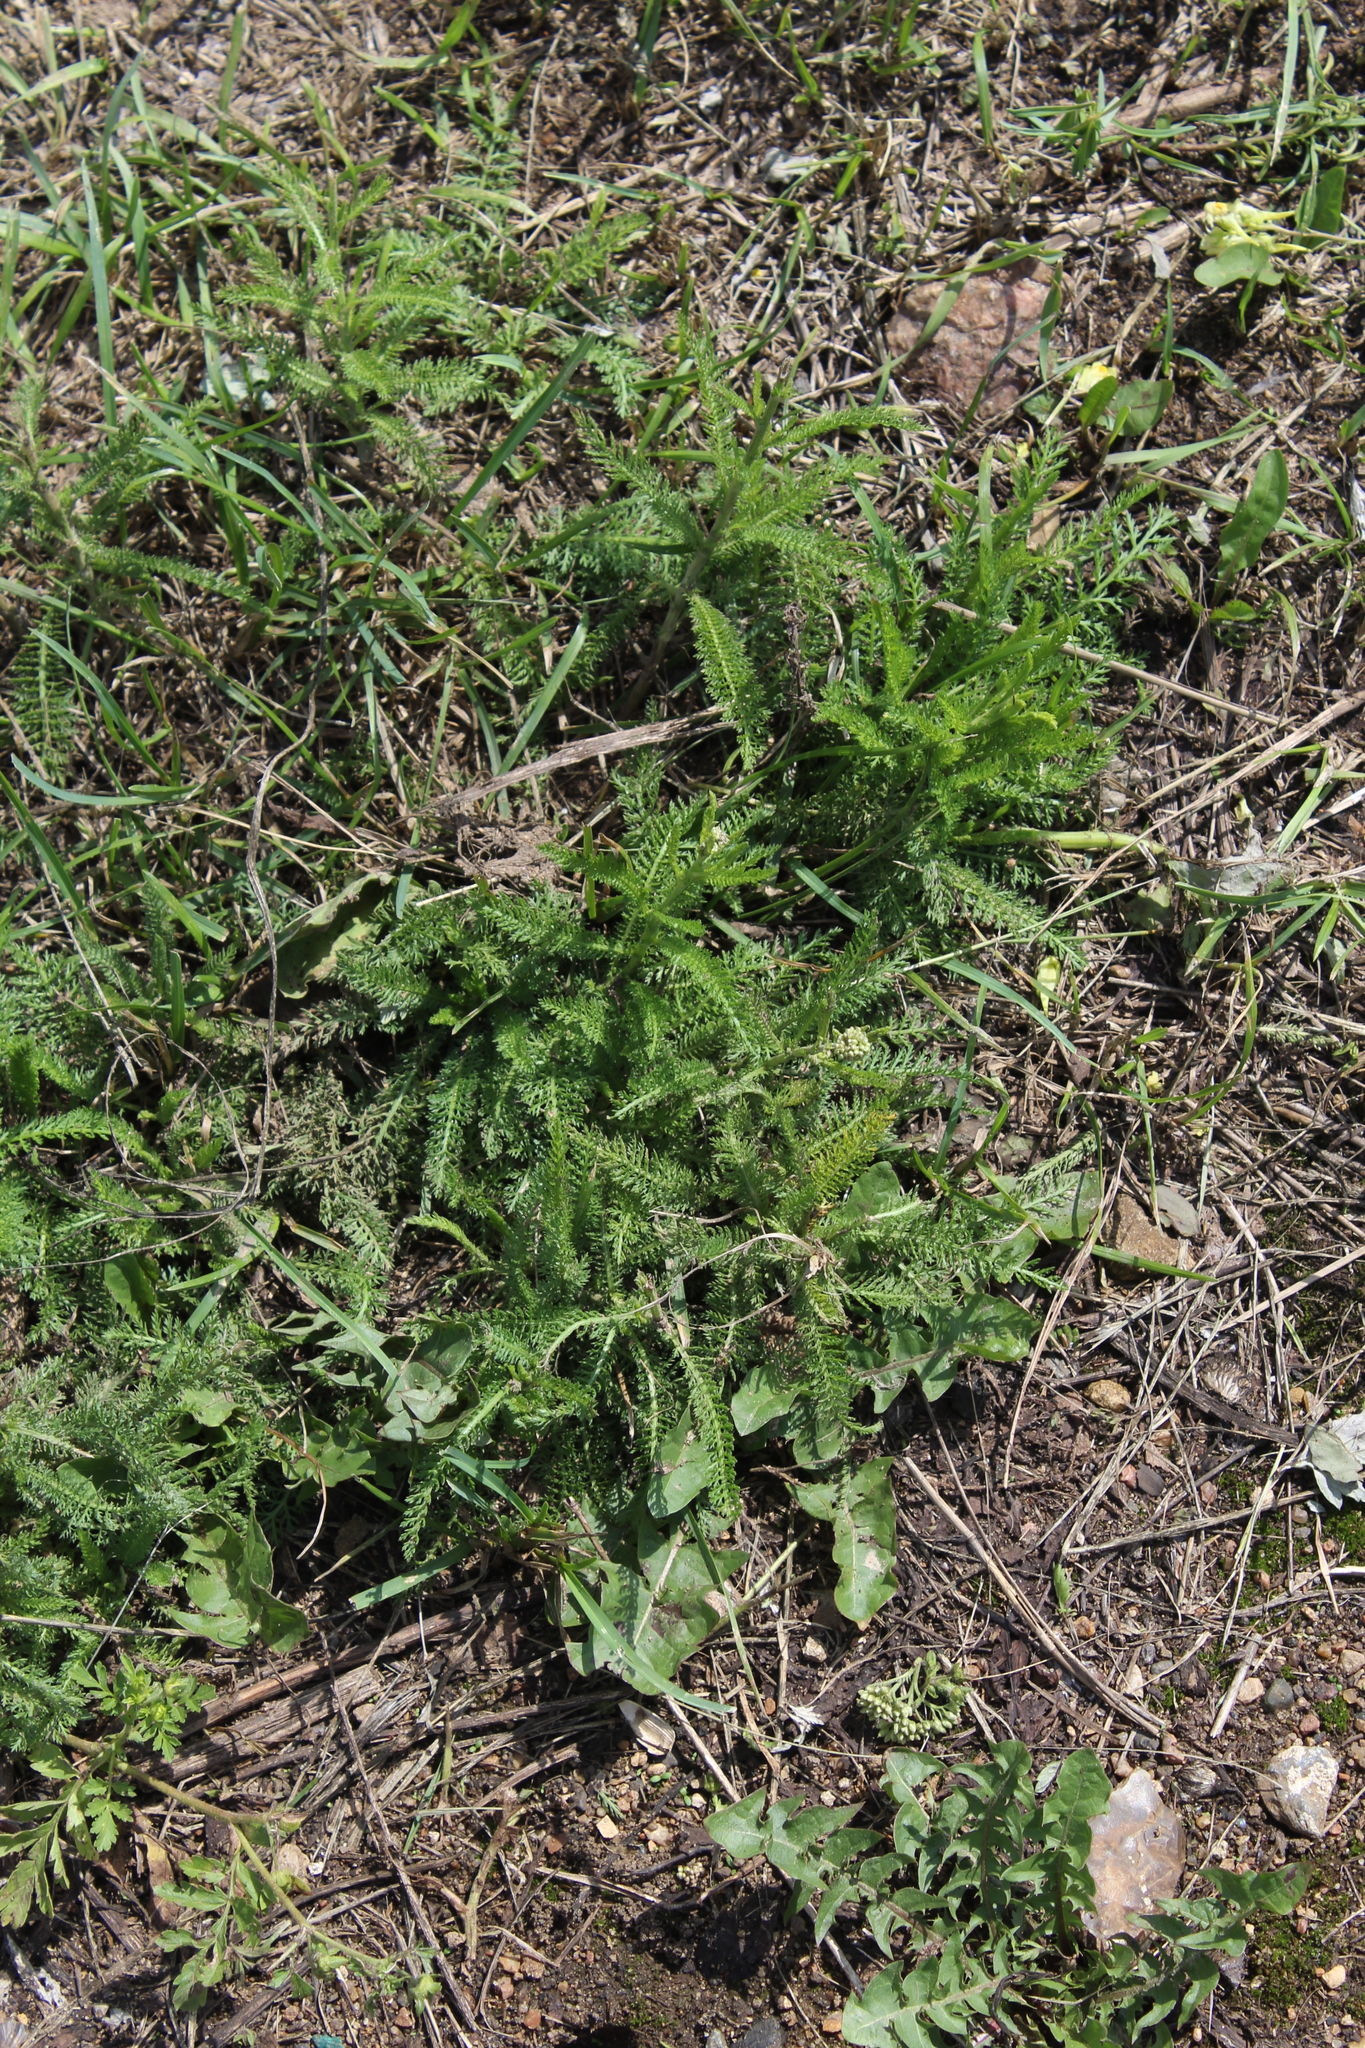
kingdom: Plantae
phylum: Tracheophyta
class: Magnoliopsida
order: Asterales
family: Asteraceae
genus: Achillea
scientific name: Achillea millefolium
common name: Yarrow
